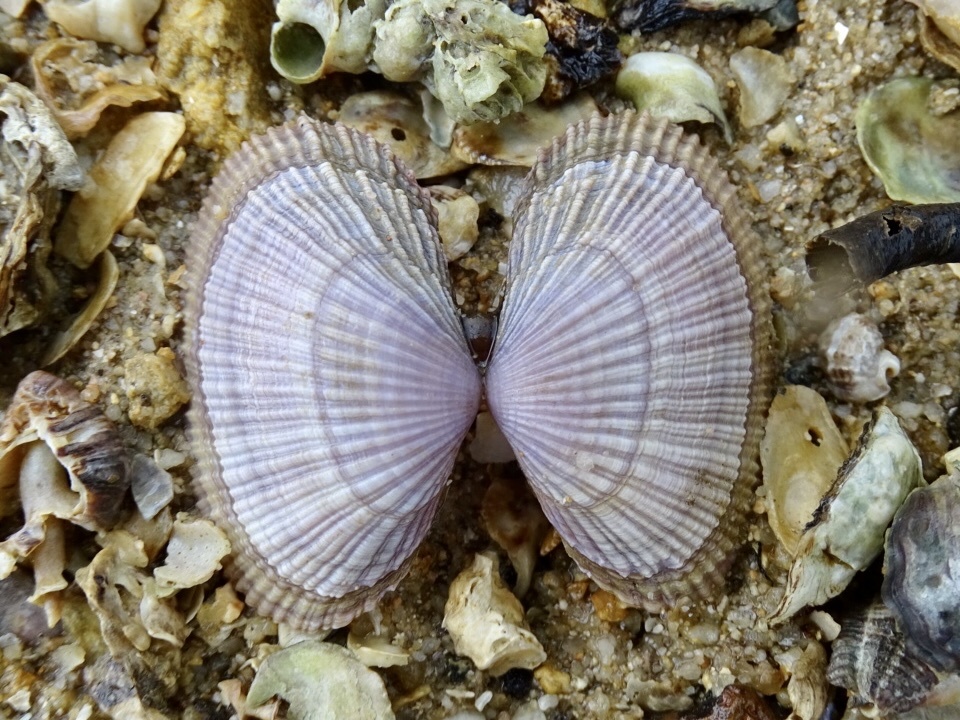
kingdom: Animalia
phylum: Mollusca
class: Bivalvia
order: Cardiida
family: Psammobiidae
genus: Asaphis
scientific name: Asaphis violascens
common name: Pacific asaphis
